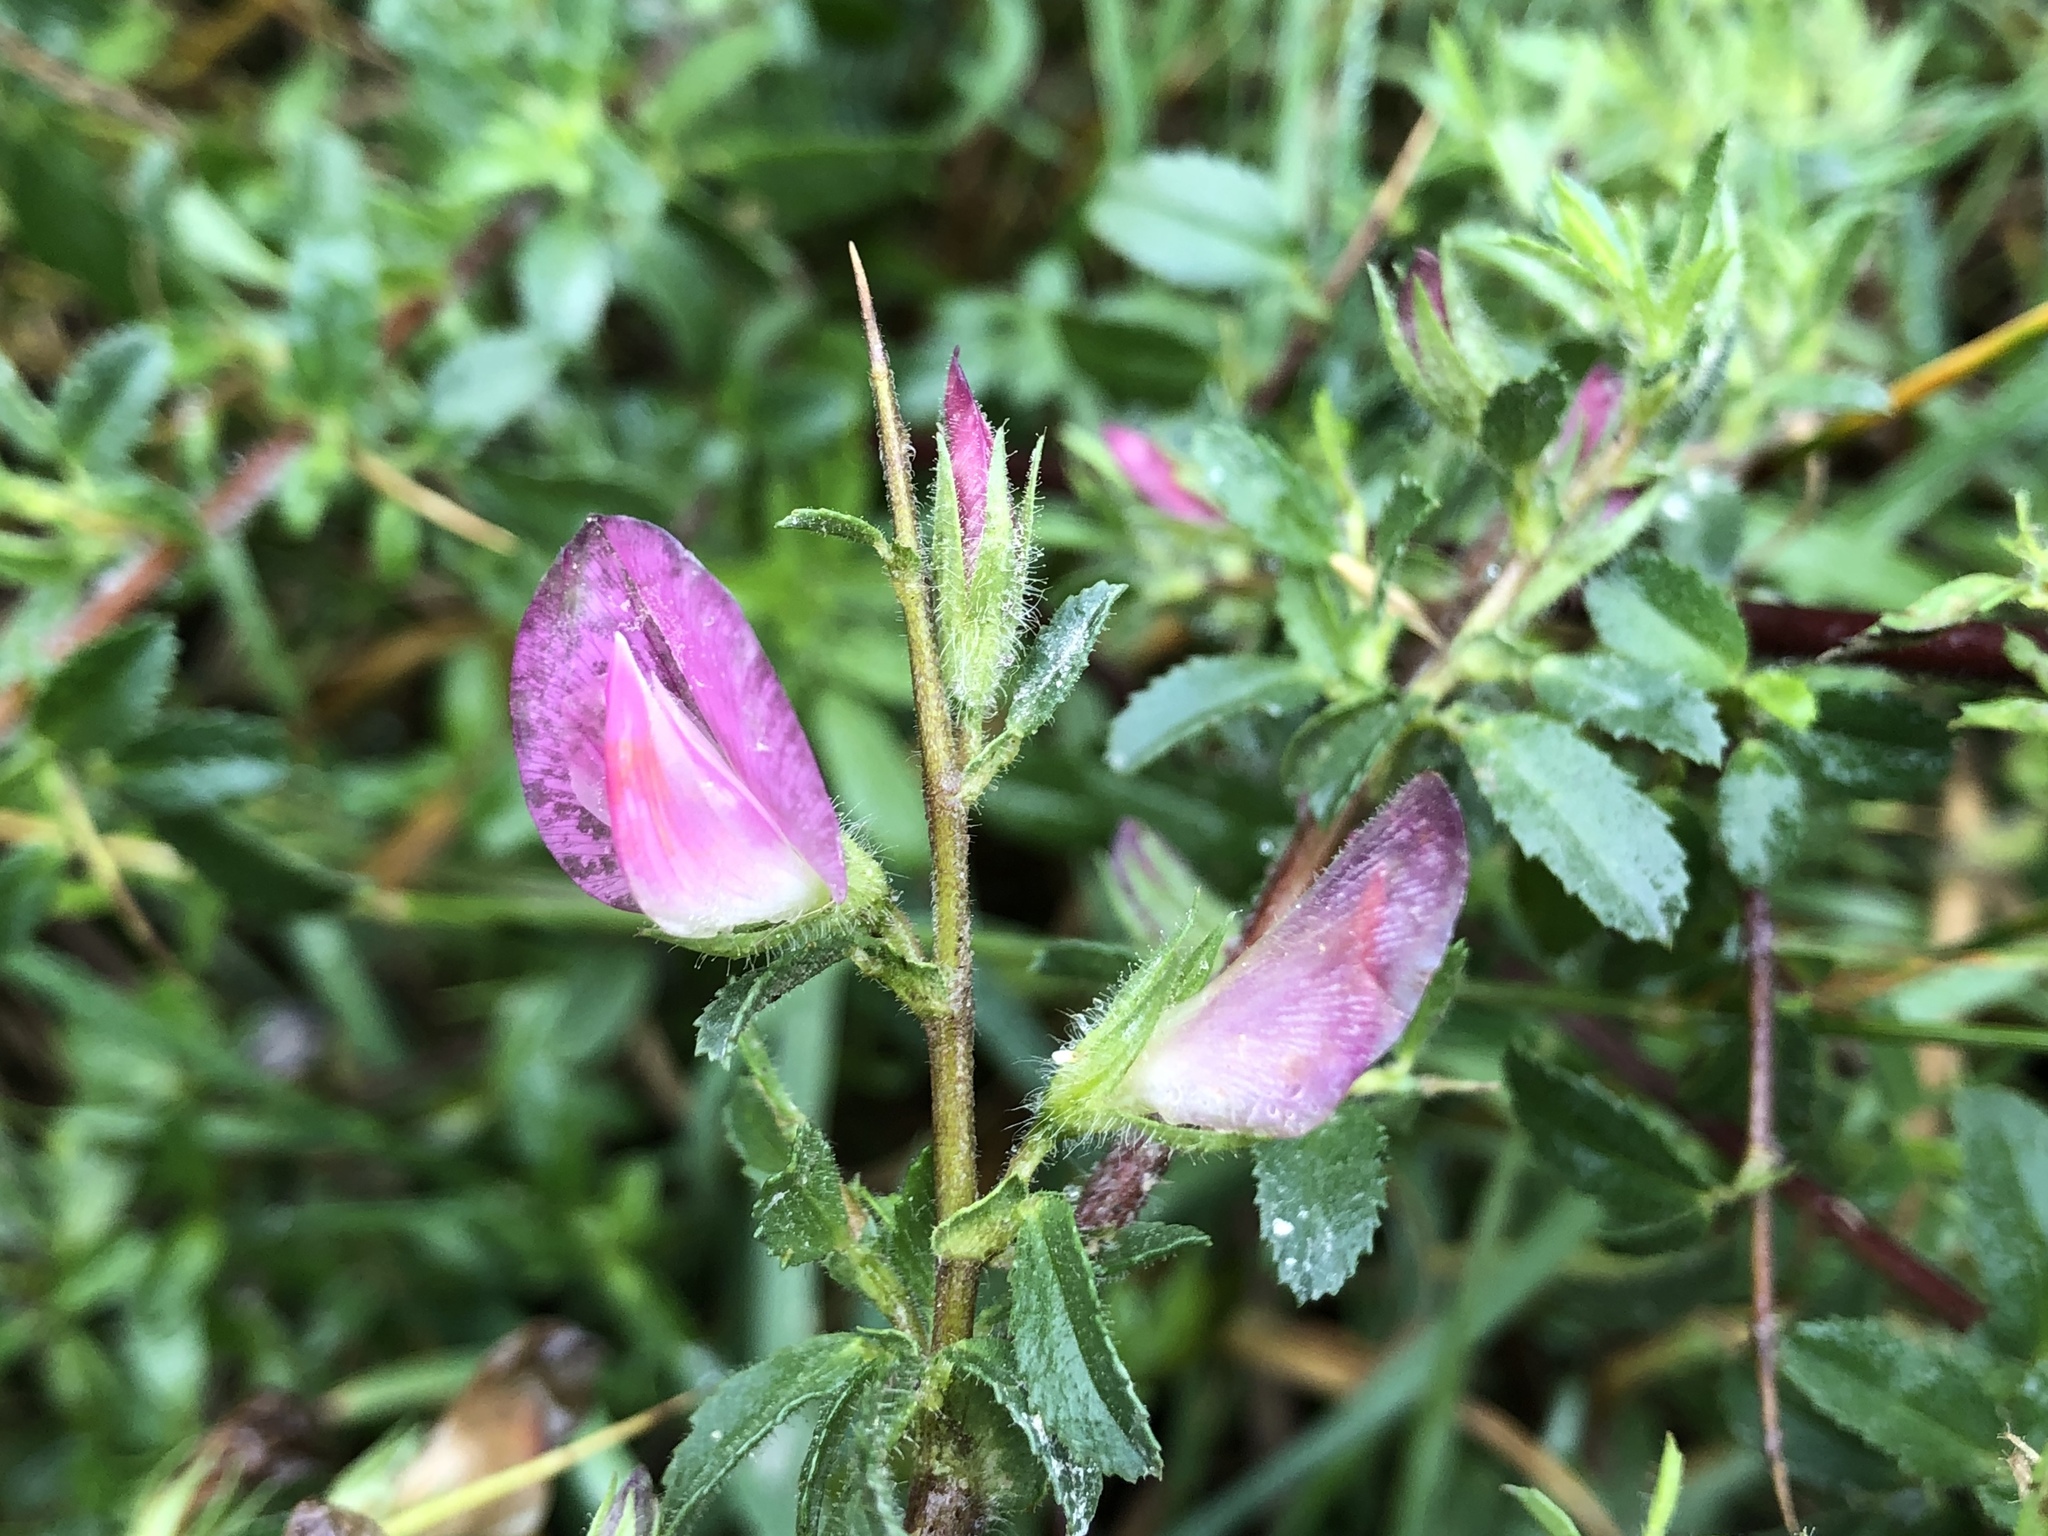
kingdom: Plantae
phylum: Tracheophyta
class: Magnoliopsida
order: Fabales
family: Fabaceae
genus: Ononis
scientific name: Ononis spinosa
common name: Spiny restharrow
